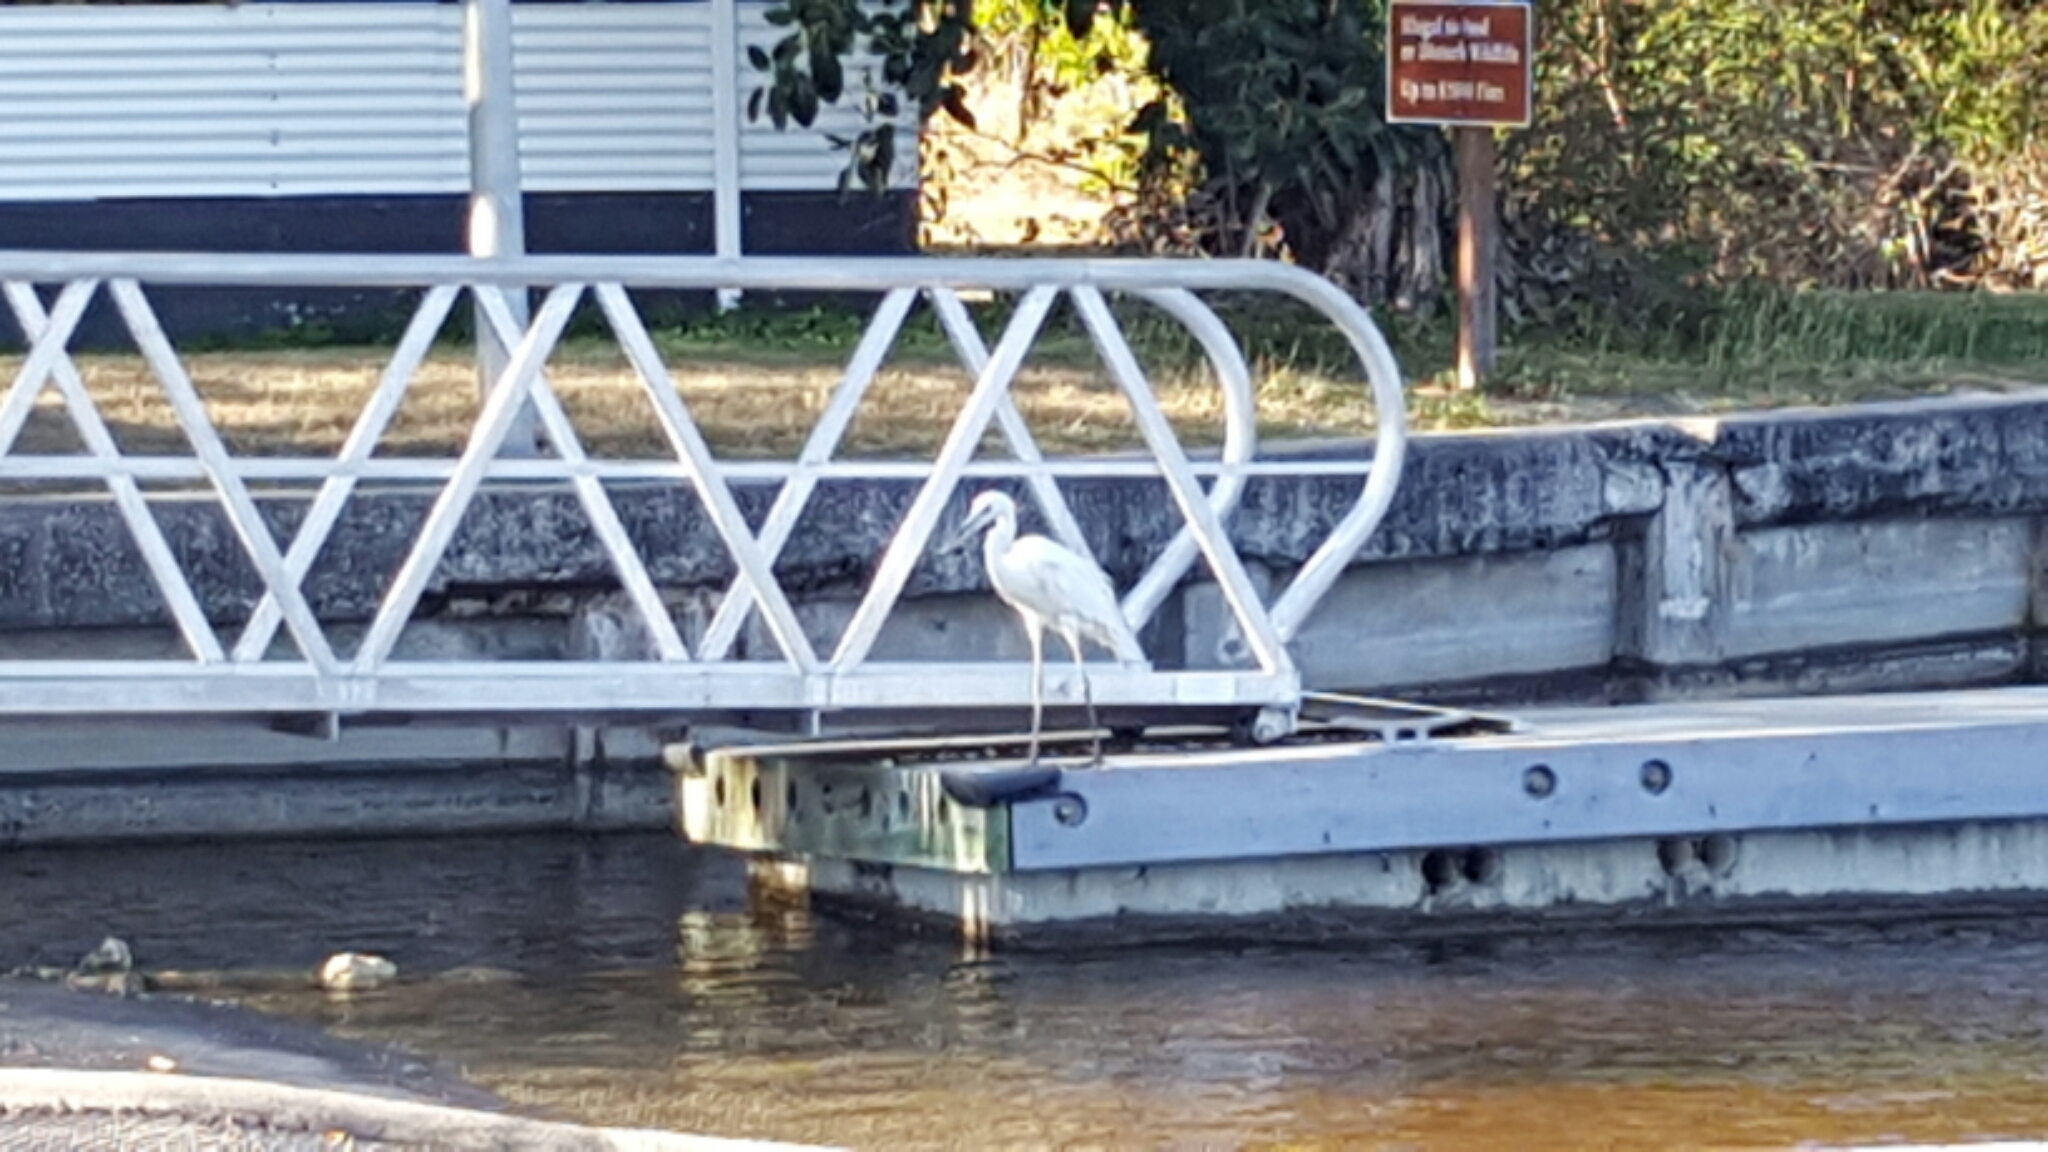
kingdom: Animalia
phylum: Chordata
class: Aves
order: Pelecaniformes
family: Ardeidae
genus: Ardea
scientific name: Ardea herodias
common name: Great blue heron
